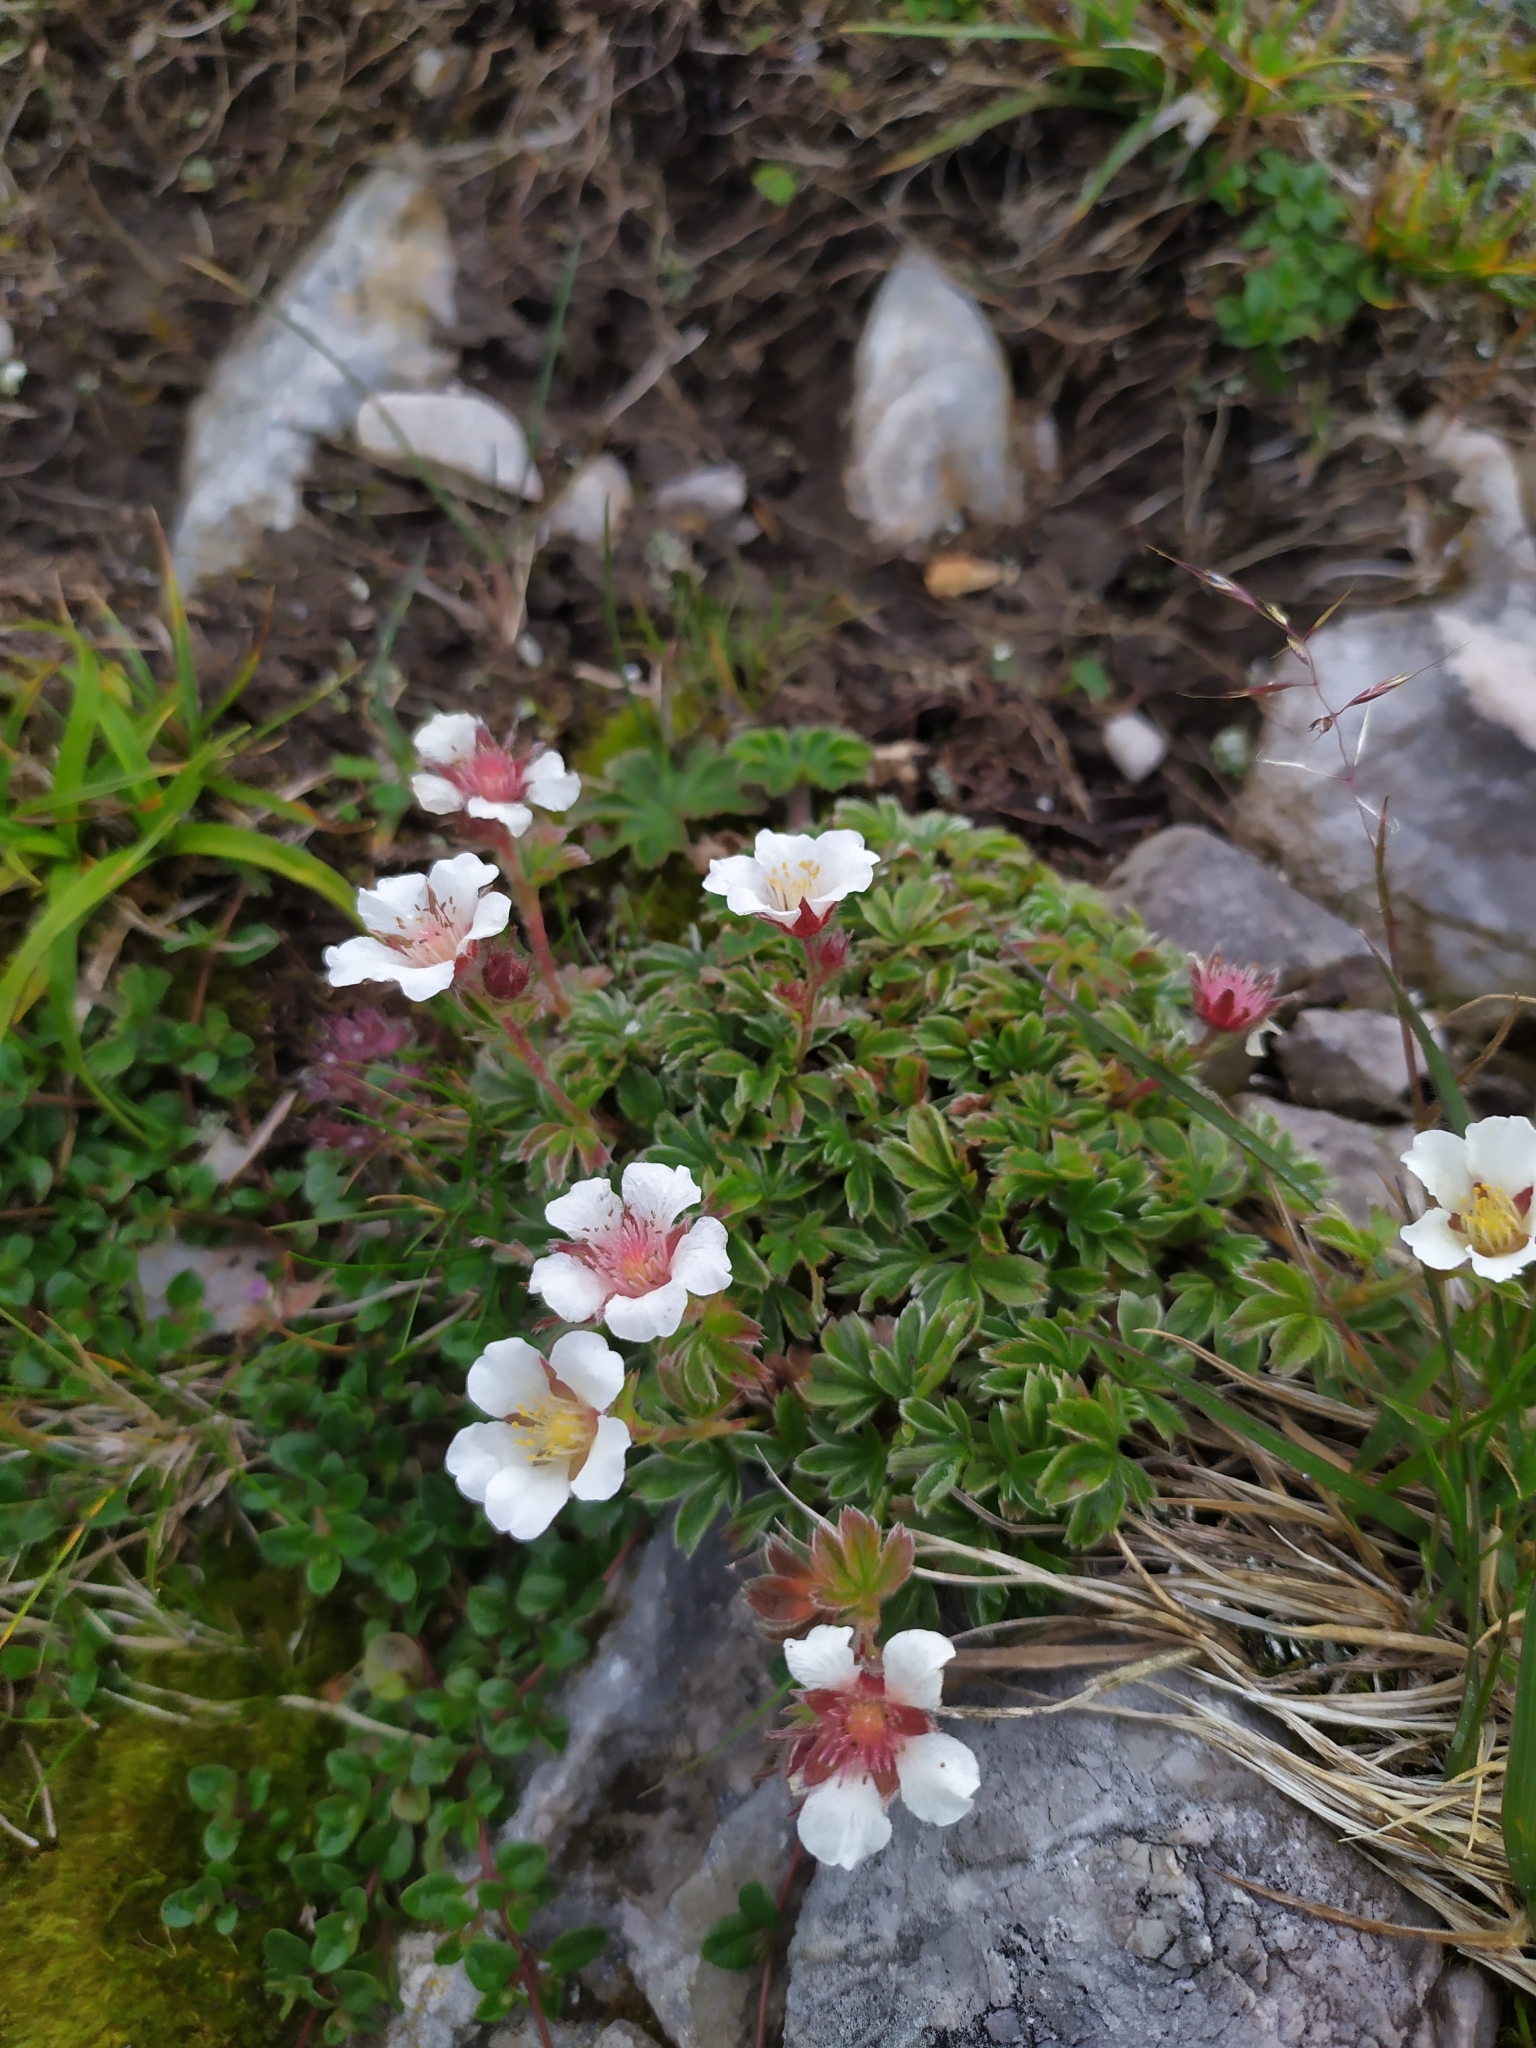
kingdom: Plantae
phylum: Tracheophyta
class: Magnoliopsida
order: Rosales
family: Rosaceae
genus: Potentilla
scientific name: Potentilla clusiana
